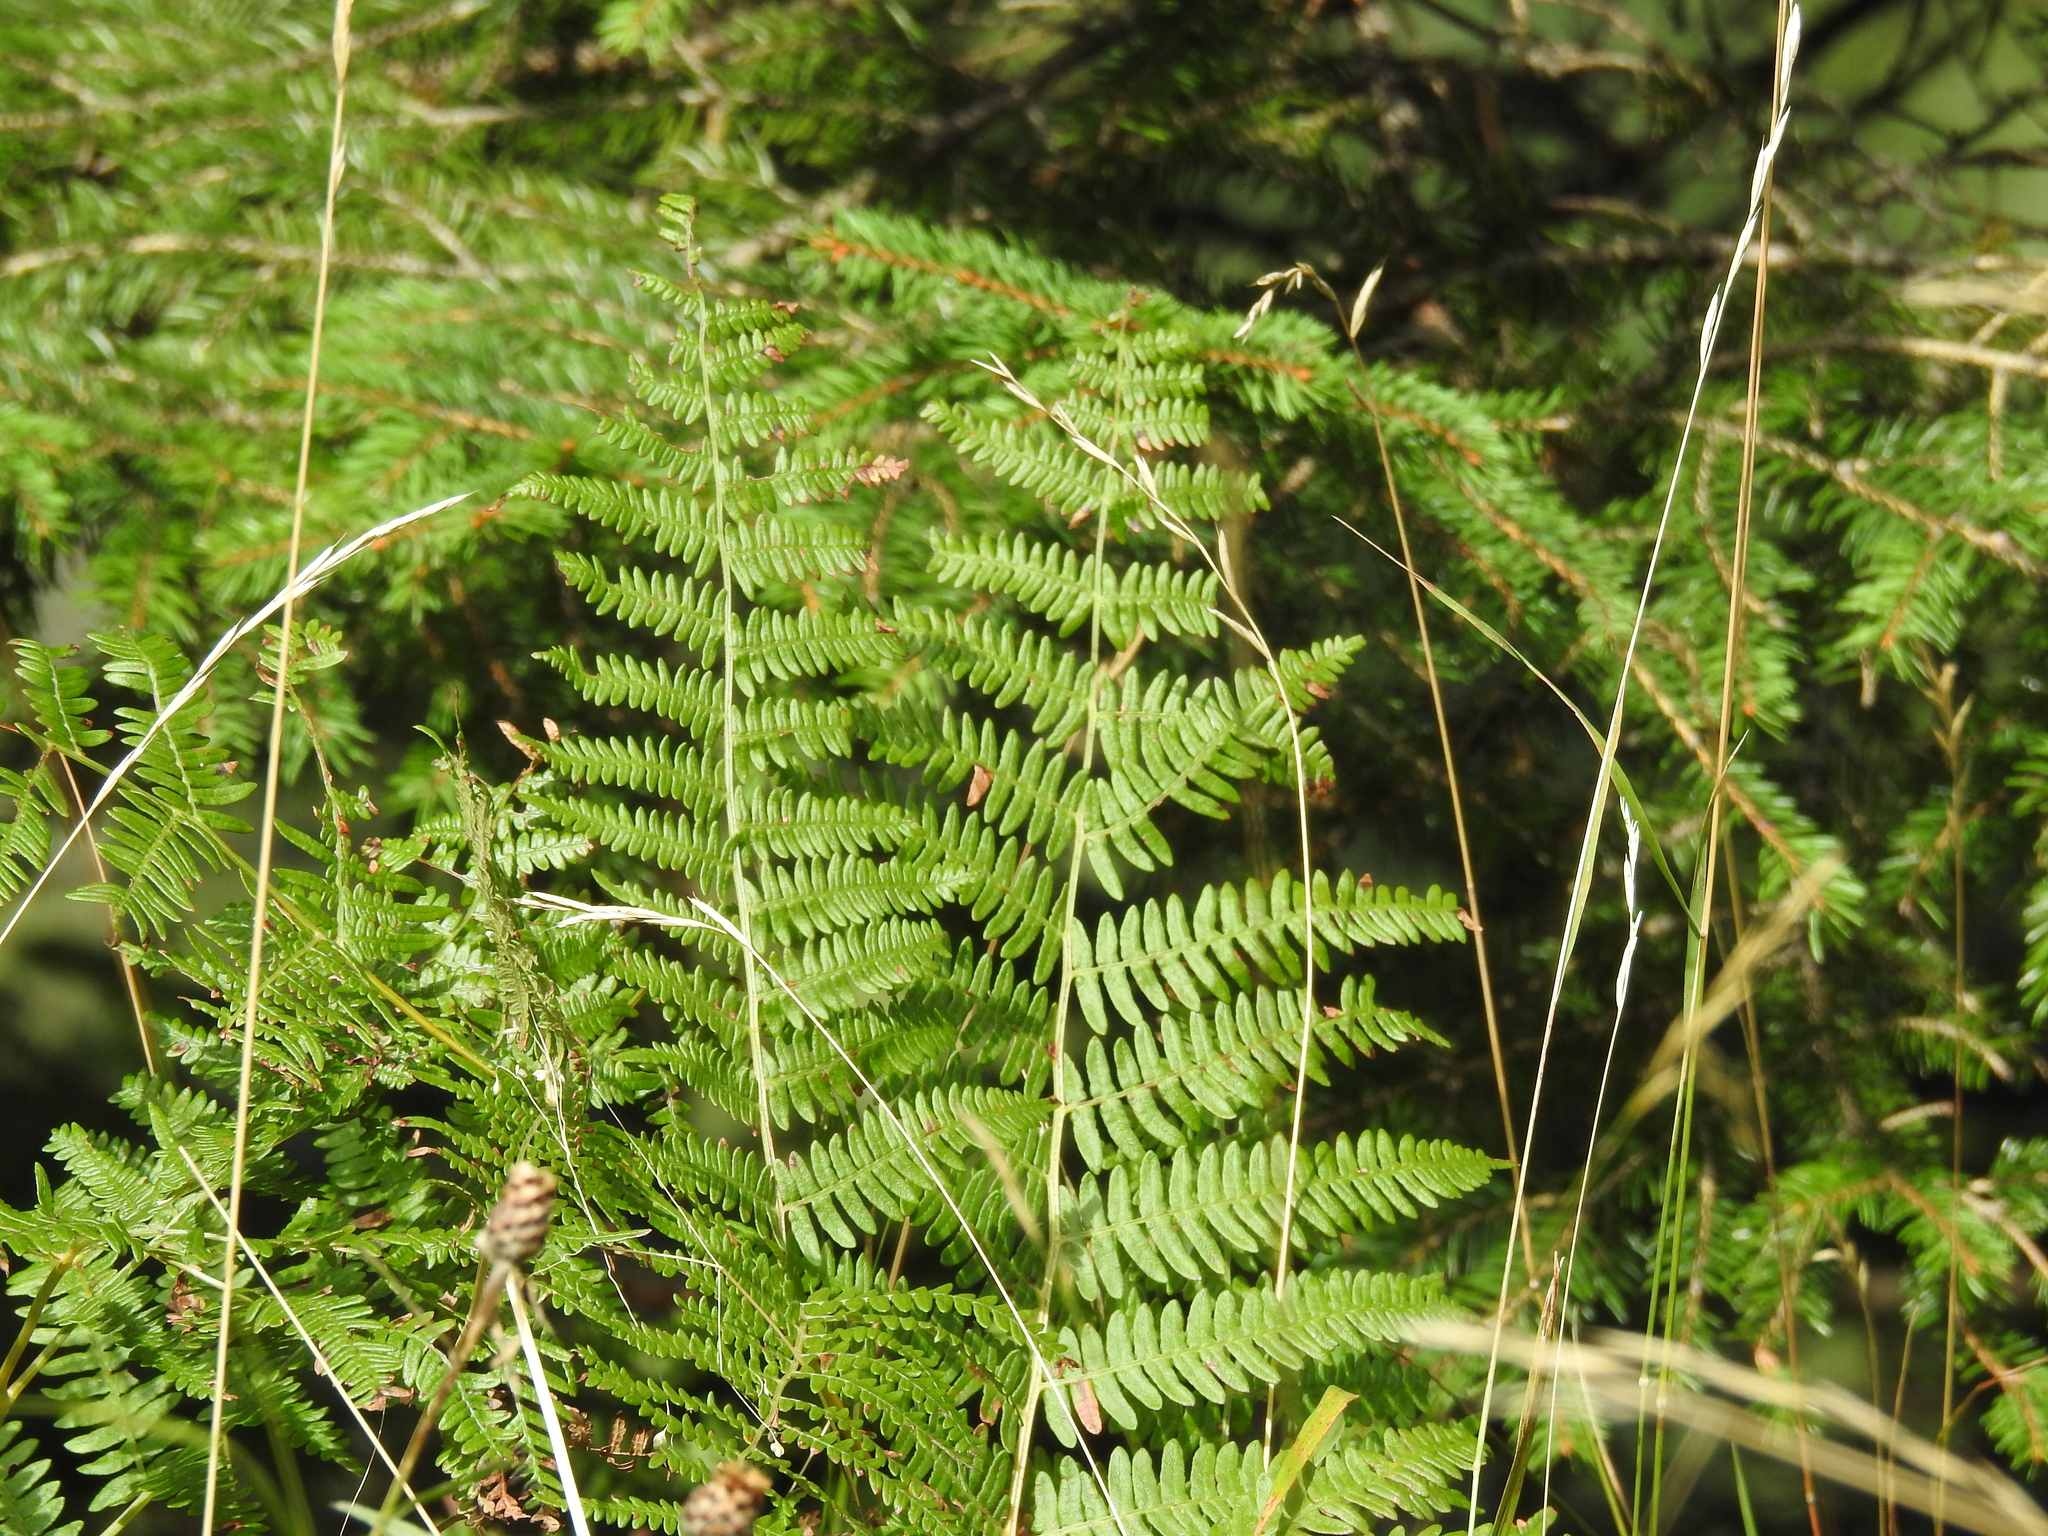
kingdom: Plantae
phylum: Tracheophyta
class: Polypodiopsida
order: Polypodiales
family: Dennstaedtiaceae
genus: Pteridium
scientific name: Pteridium aquilinum
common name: Bracken
